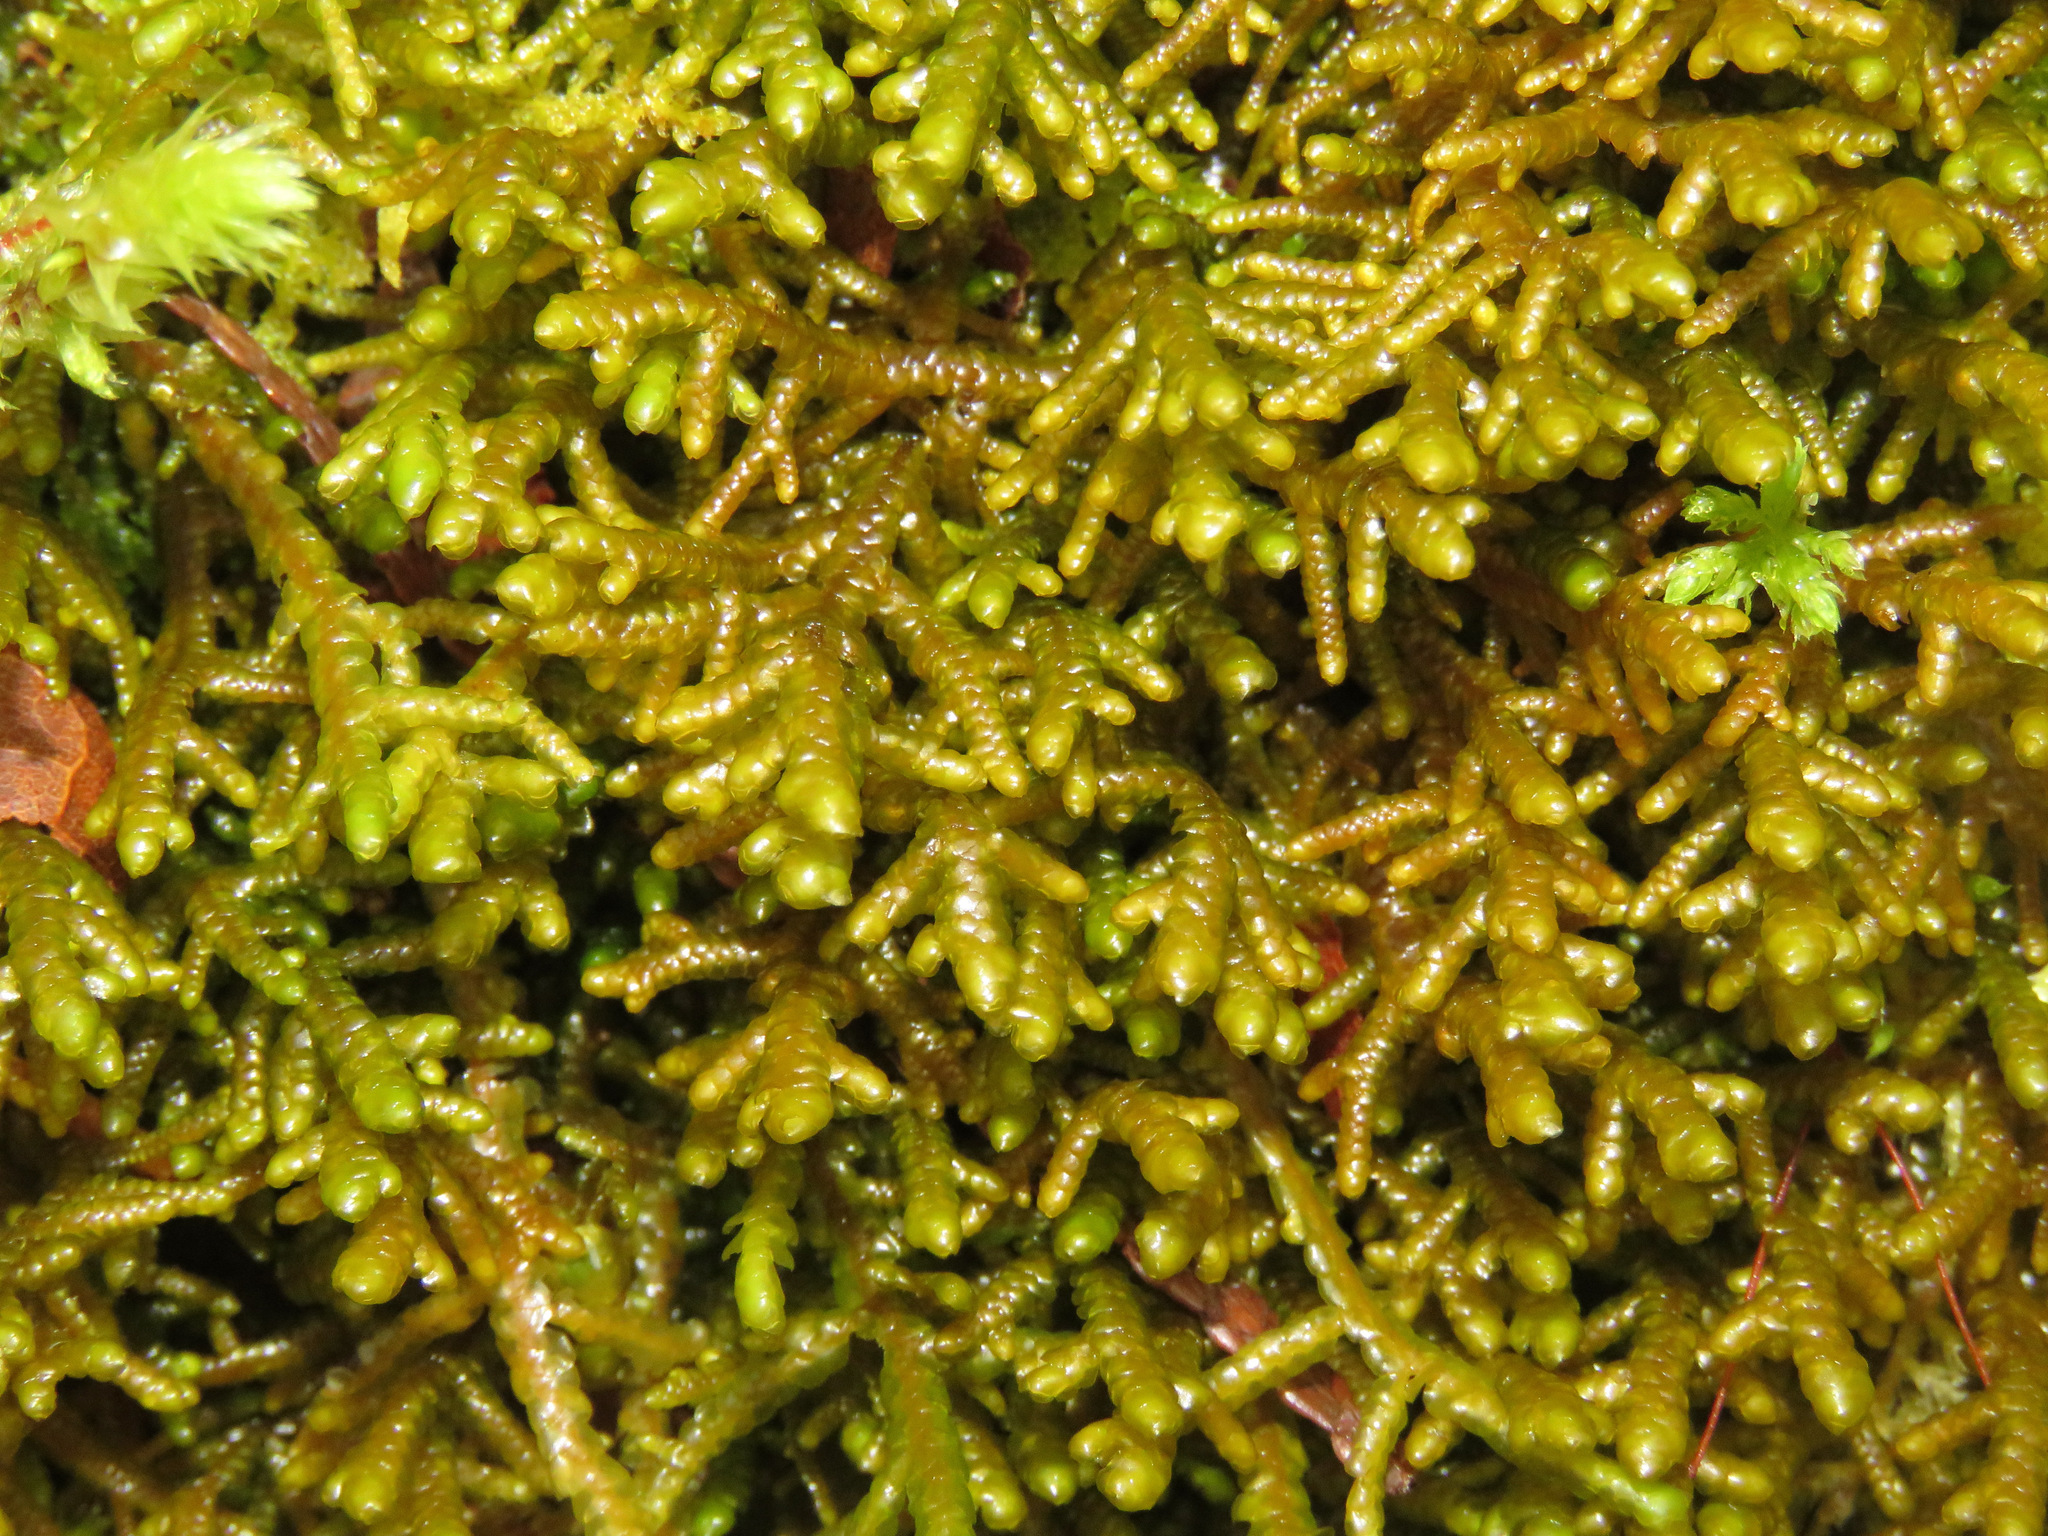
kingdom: Plantae
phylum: Marchantiophyta
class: Jungermanniopsida
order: Porellales
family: Porellaceae
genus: Porella
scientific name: Porella navicularis
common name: Tree ruffle liverwort
